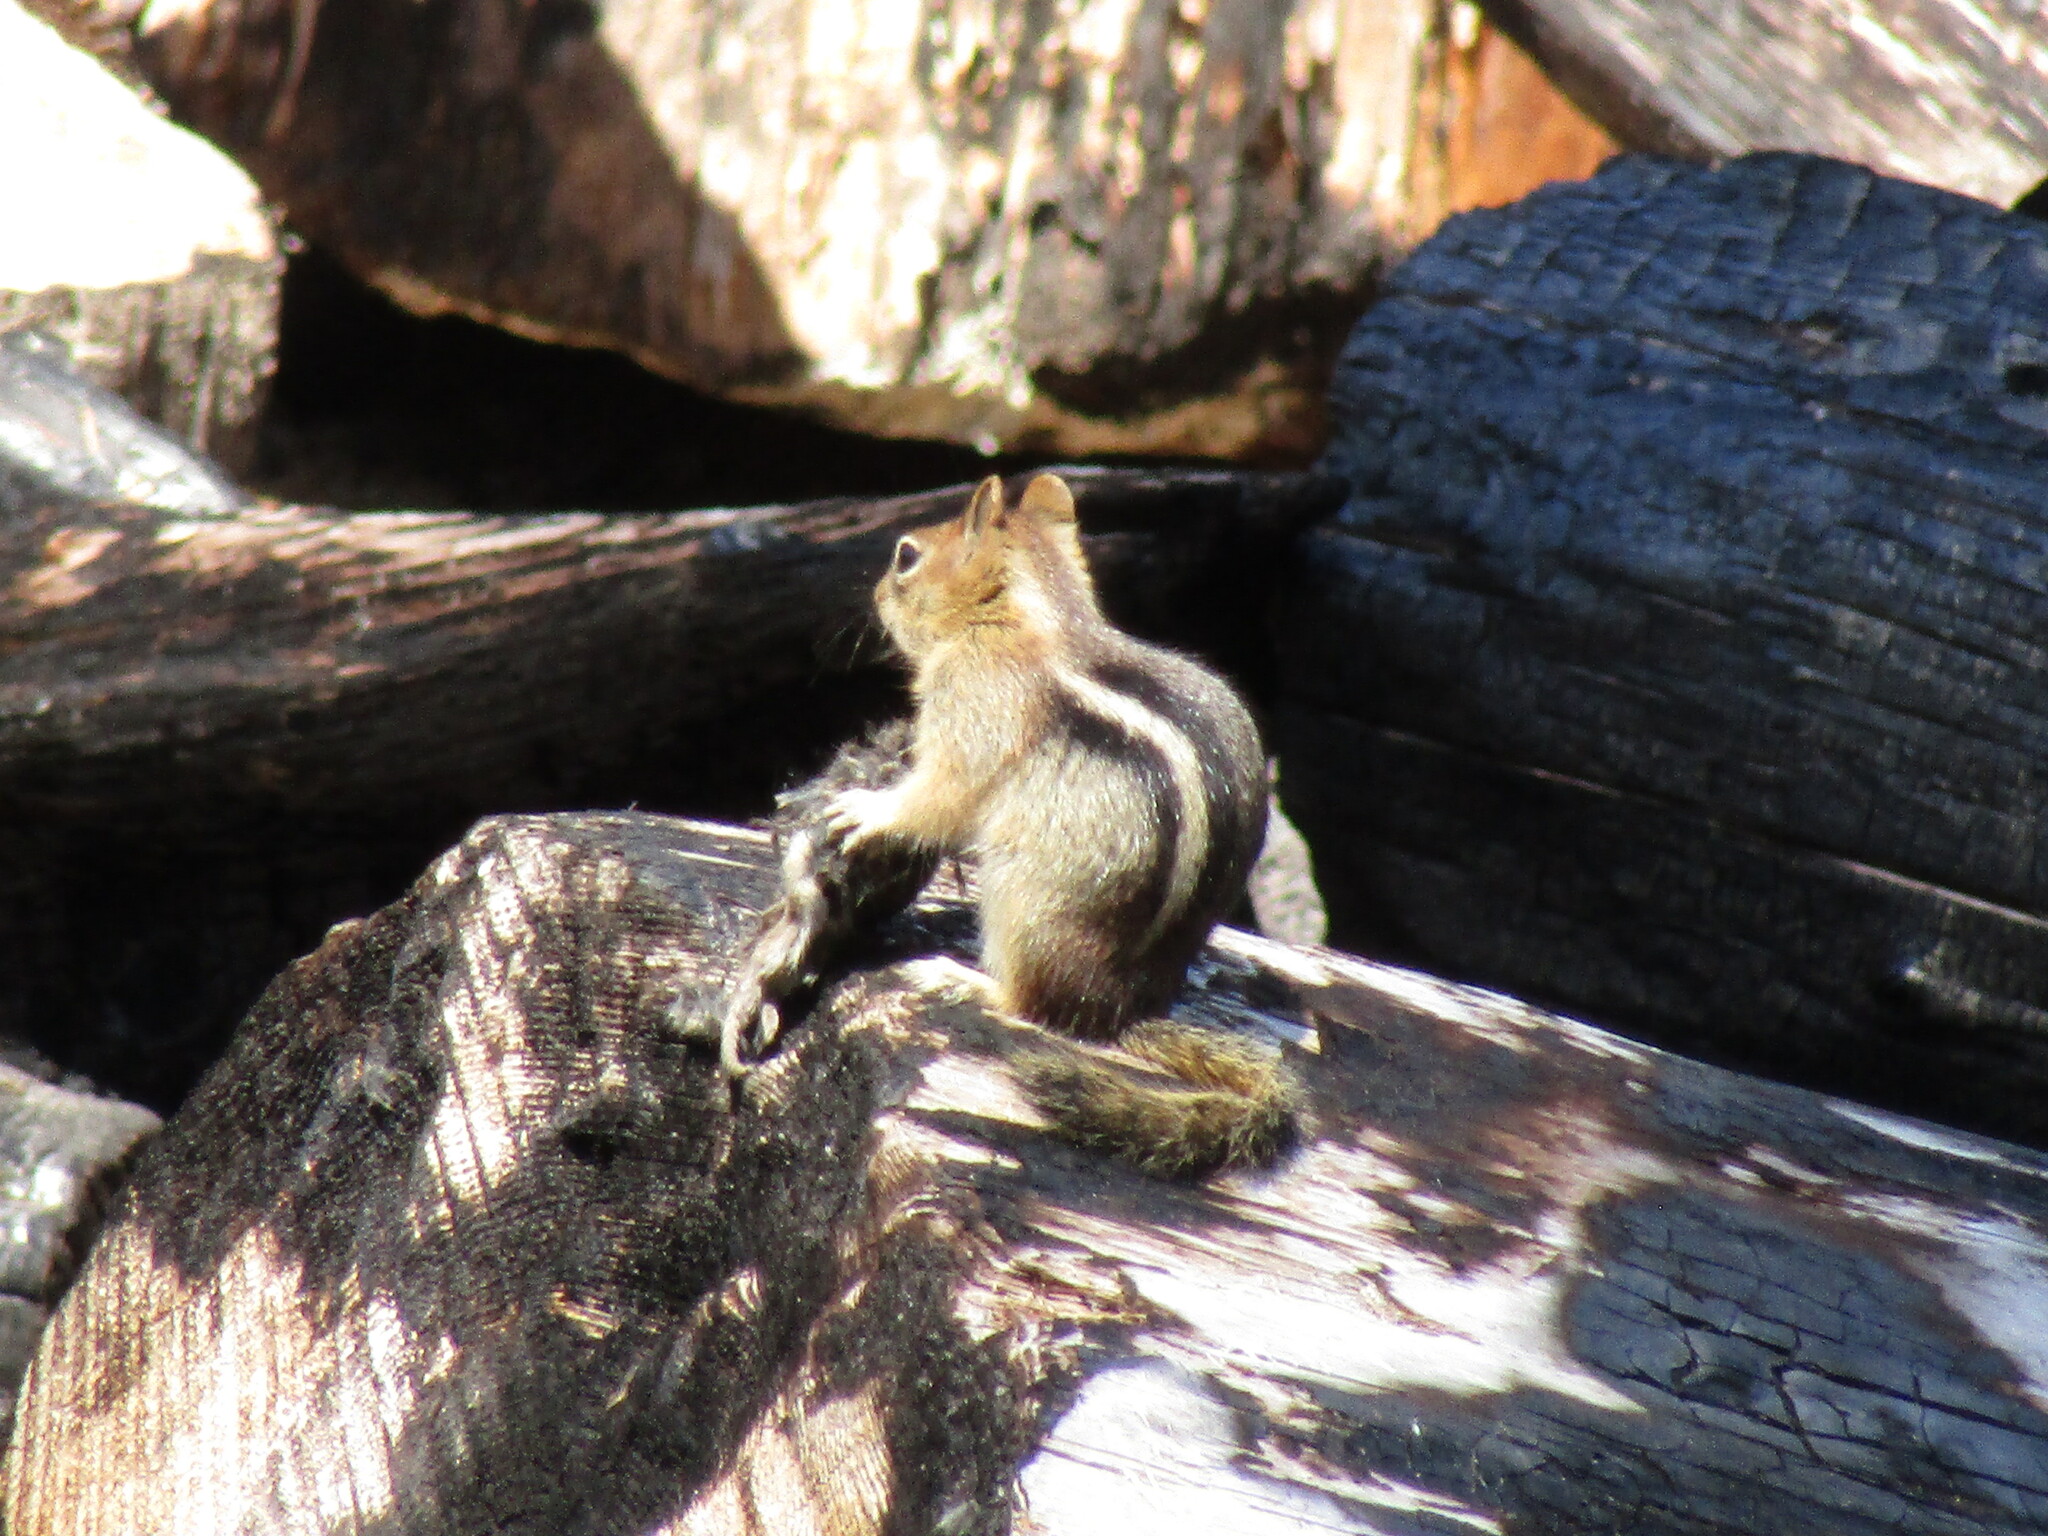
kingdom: Animalia
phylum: Chordata
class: Mammalia
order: Rodentia
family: Sciuridae
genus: Callospermophilus
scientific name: Callospermophilus lateralis
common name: Golden-mantled ground squirrel
